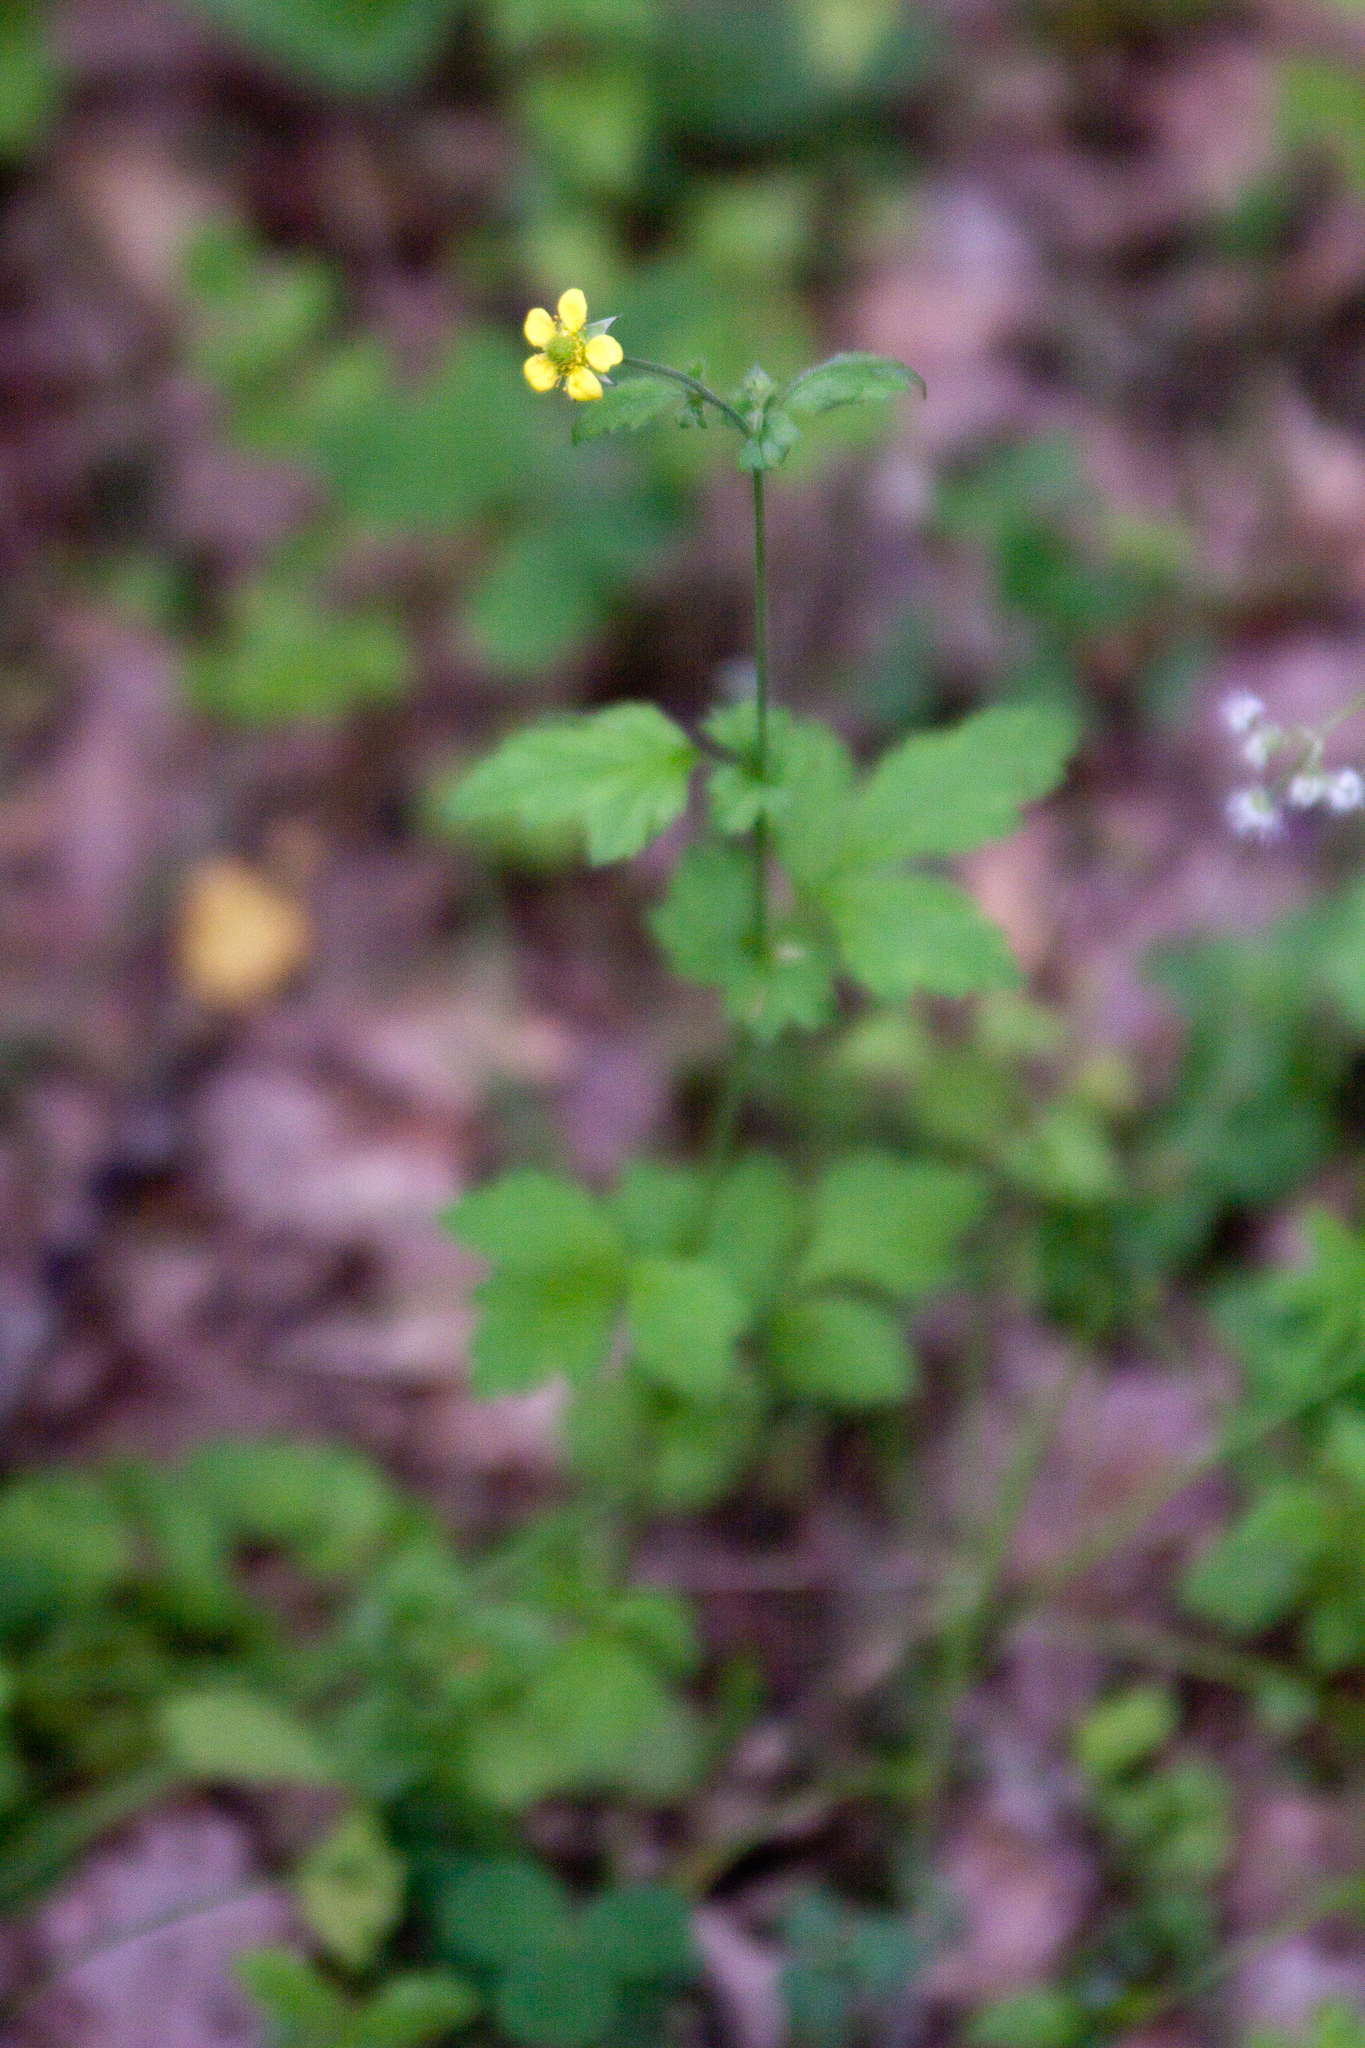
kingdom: Plantae
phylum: Tracheophyta
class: Magnoliopsida
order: Rosales
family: Rosaceae
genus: Geum
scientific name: Geum urbanum
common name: Wood avens
